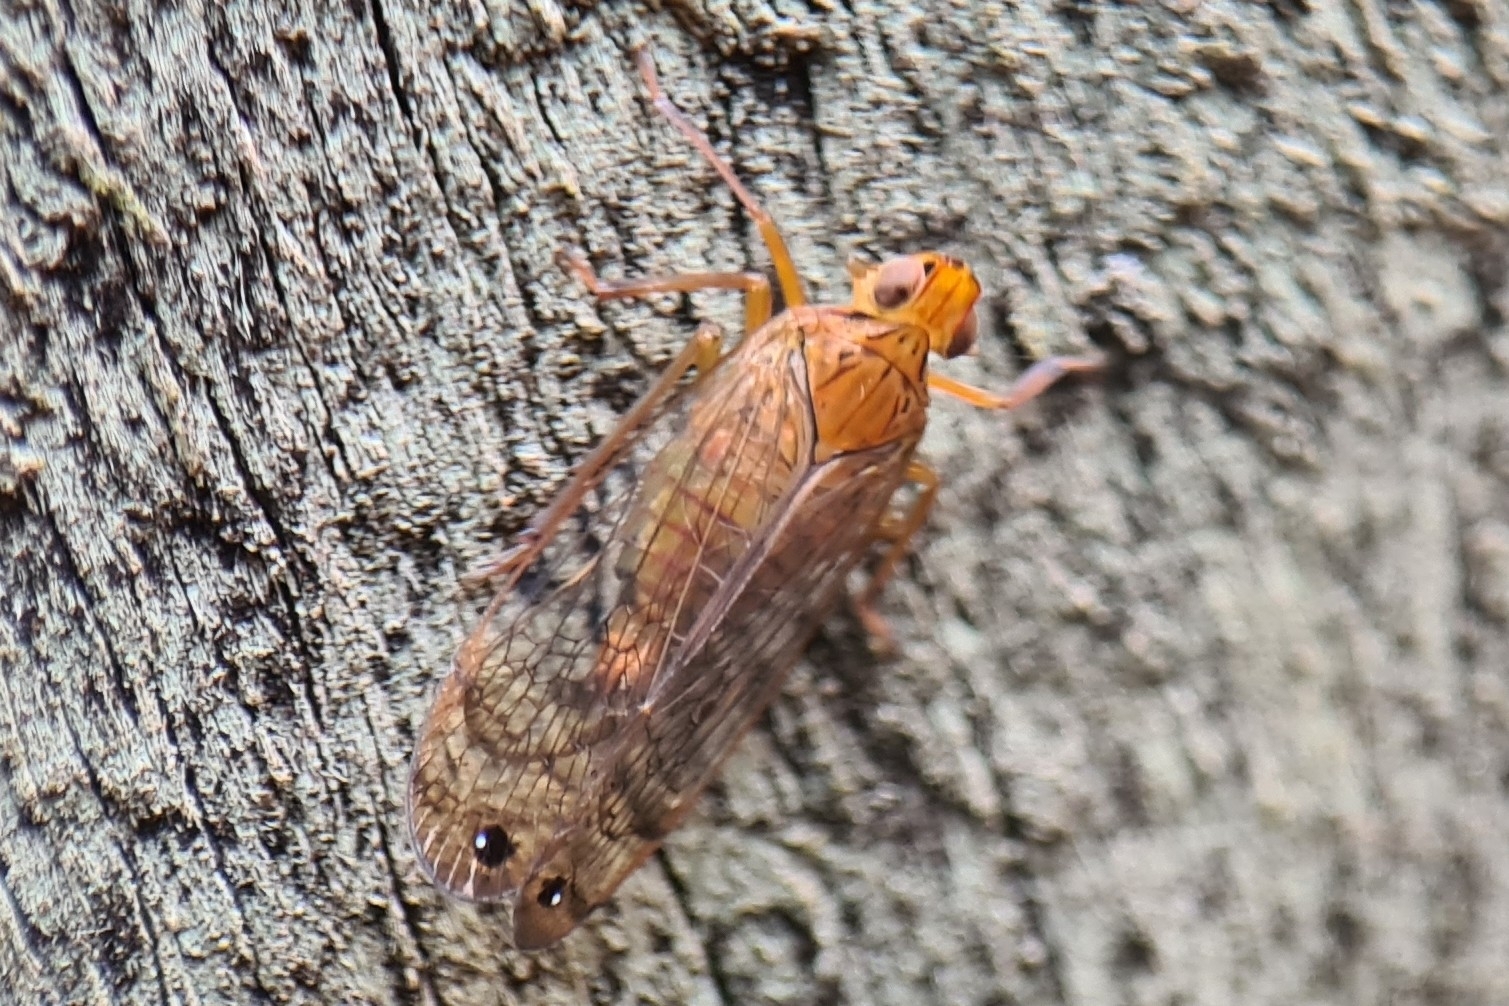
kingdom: Animalia
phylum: Arthropoda
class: Insecta
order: Hemiptera
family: Lophopidae
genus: Magia
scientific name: Magia subocellata
